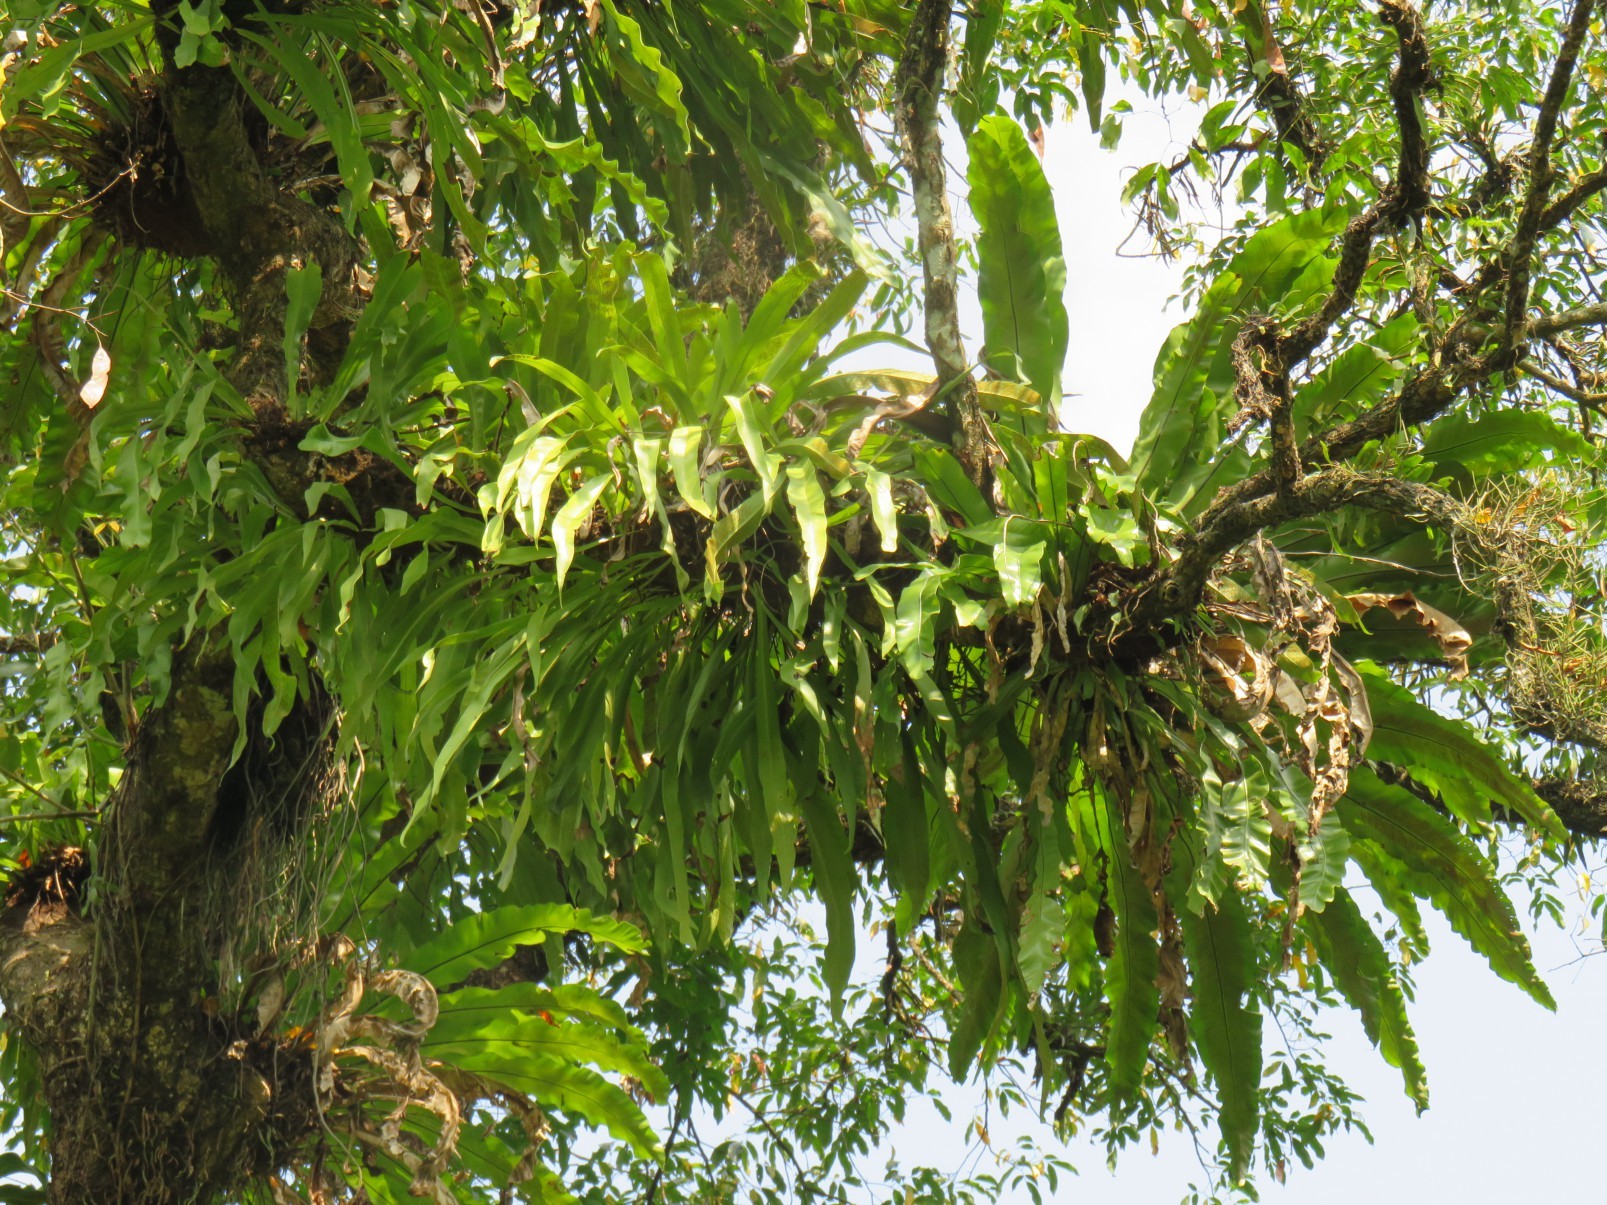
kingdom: Plantae
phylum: Tracheophyta
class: Polypodiopsida
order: Polypodiales
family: Aspleniaceae
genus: Asplenium
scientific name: Asplenium nidus
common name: Bird's-nest fern
